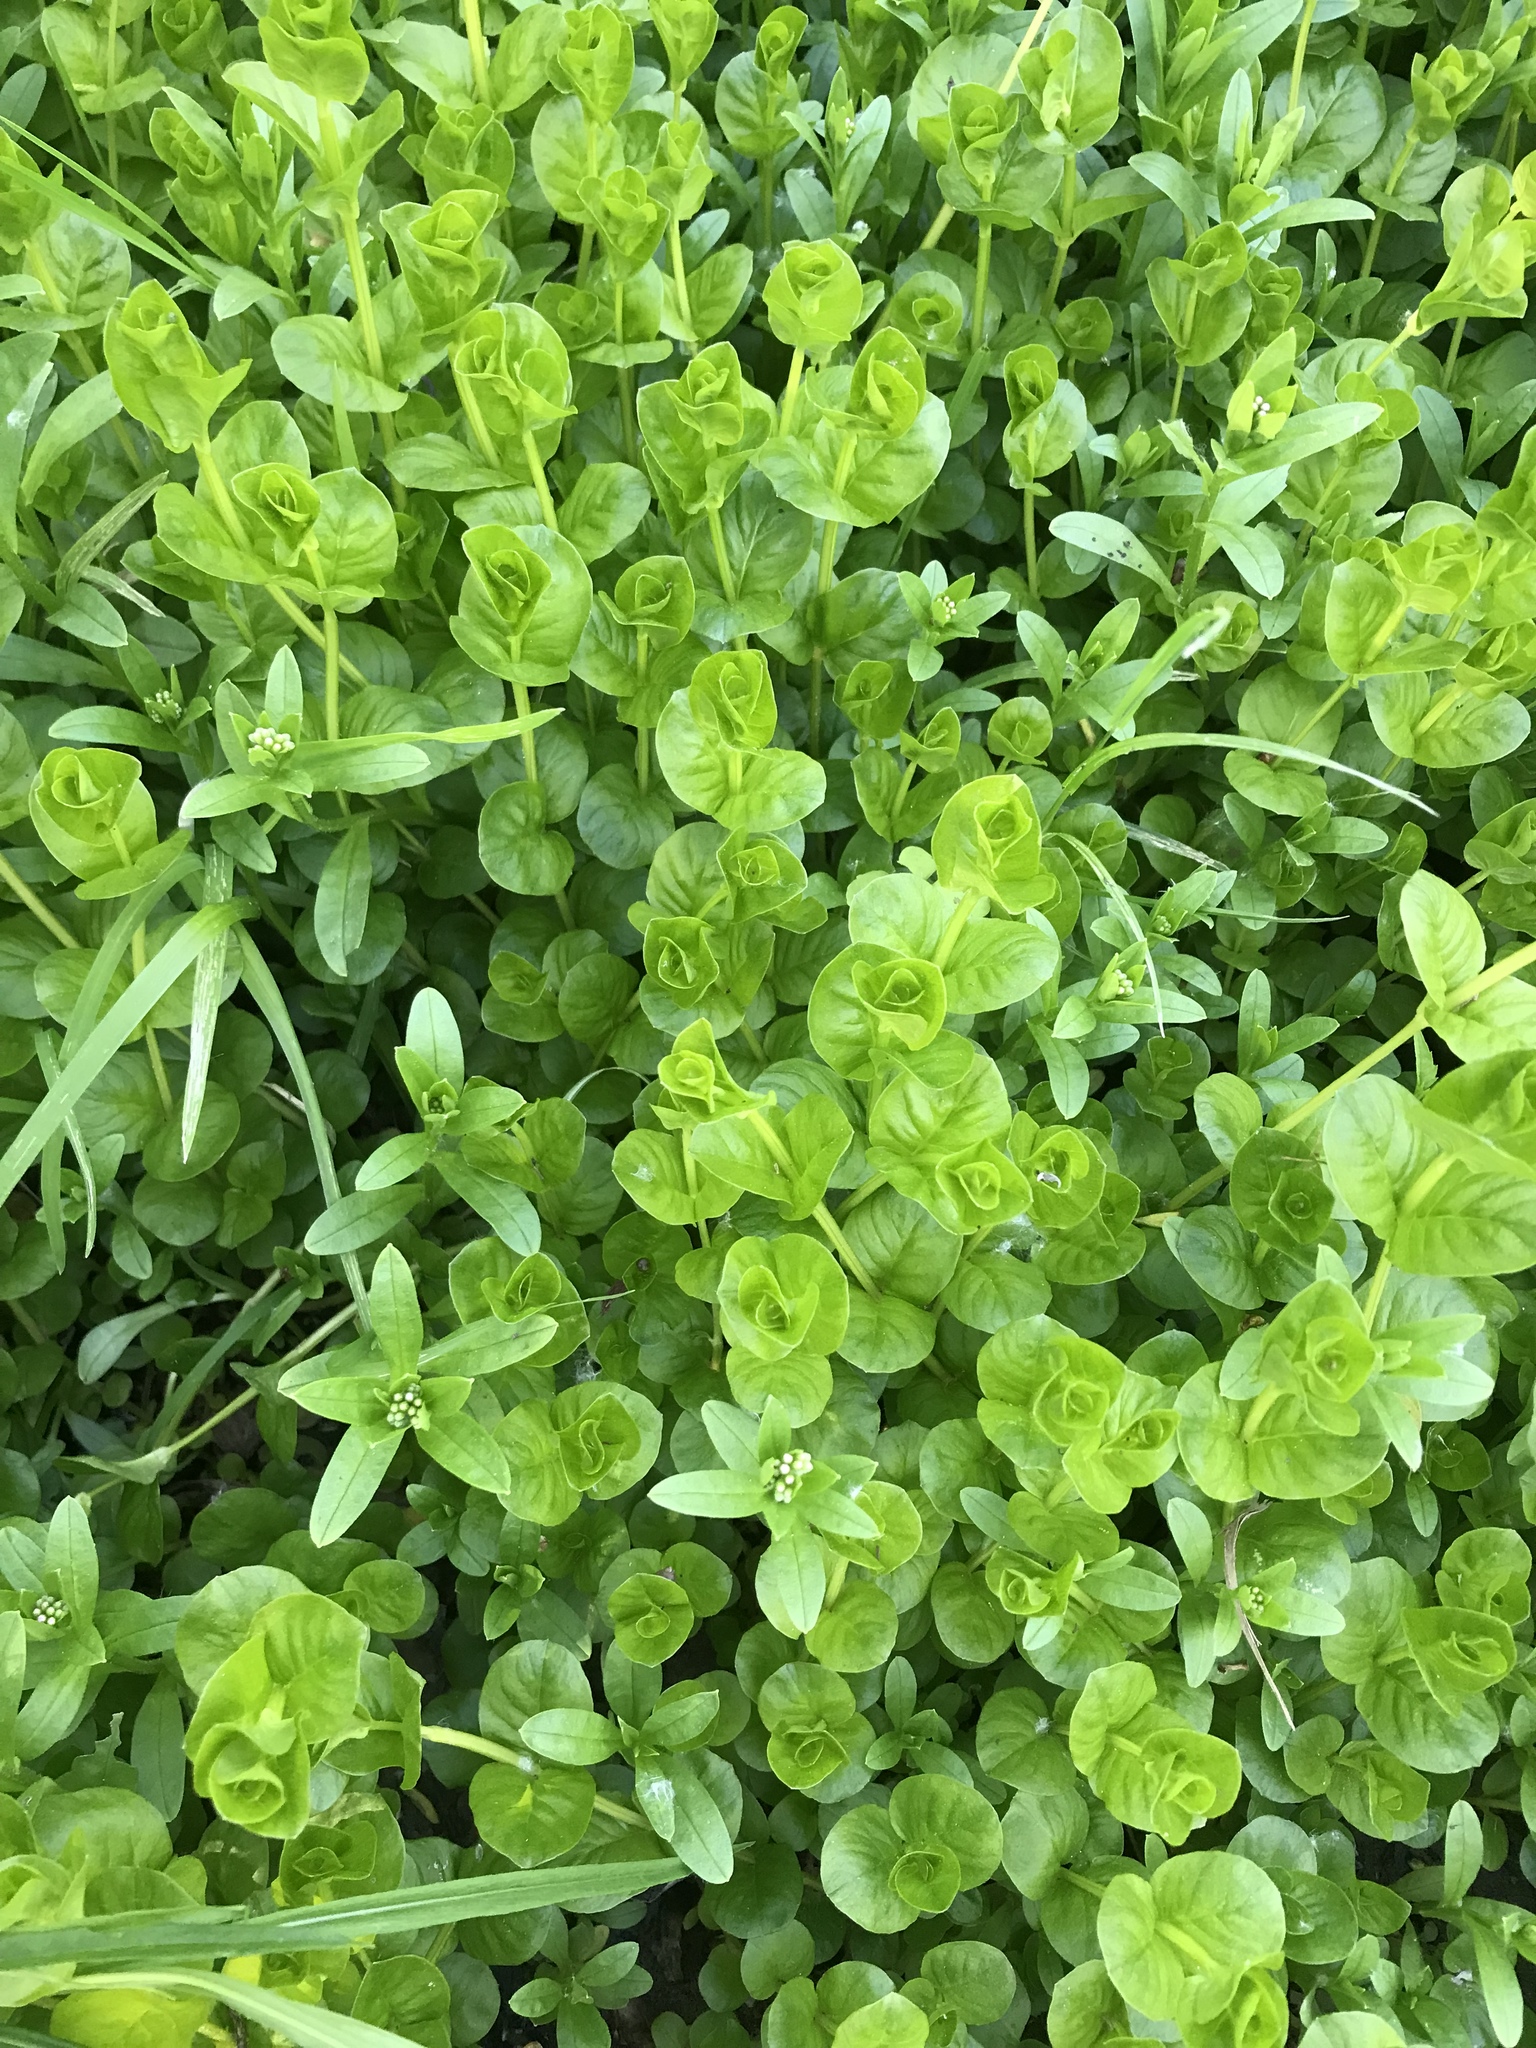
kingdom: Plantae
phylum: Tracheophyta
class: Magnoliopsida
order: Ericales
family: Primulaceae
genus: Lysimachia
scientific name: Lysimachia nummularia
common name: Moneywort
